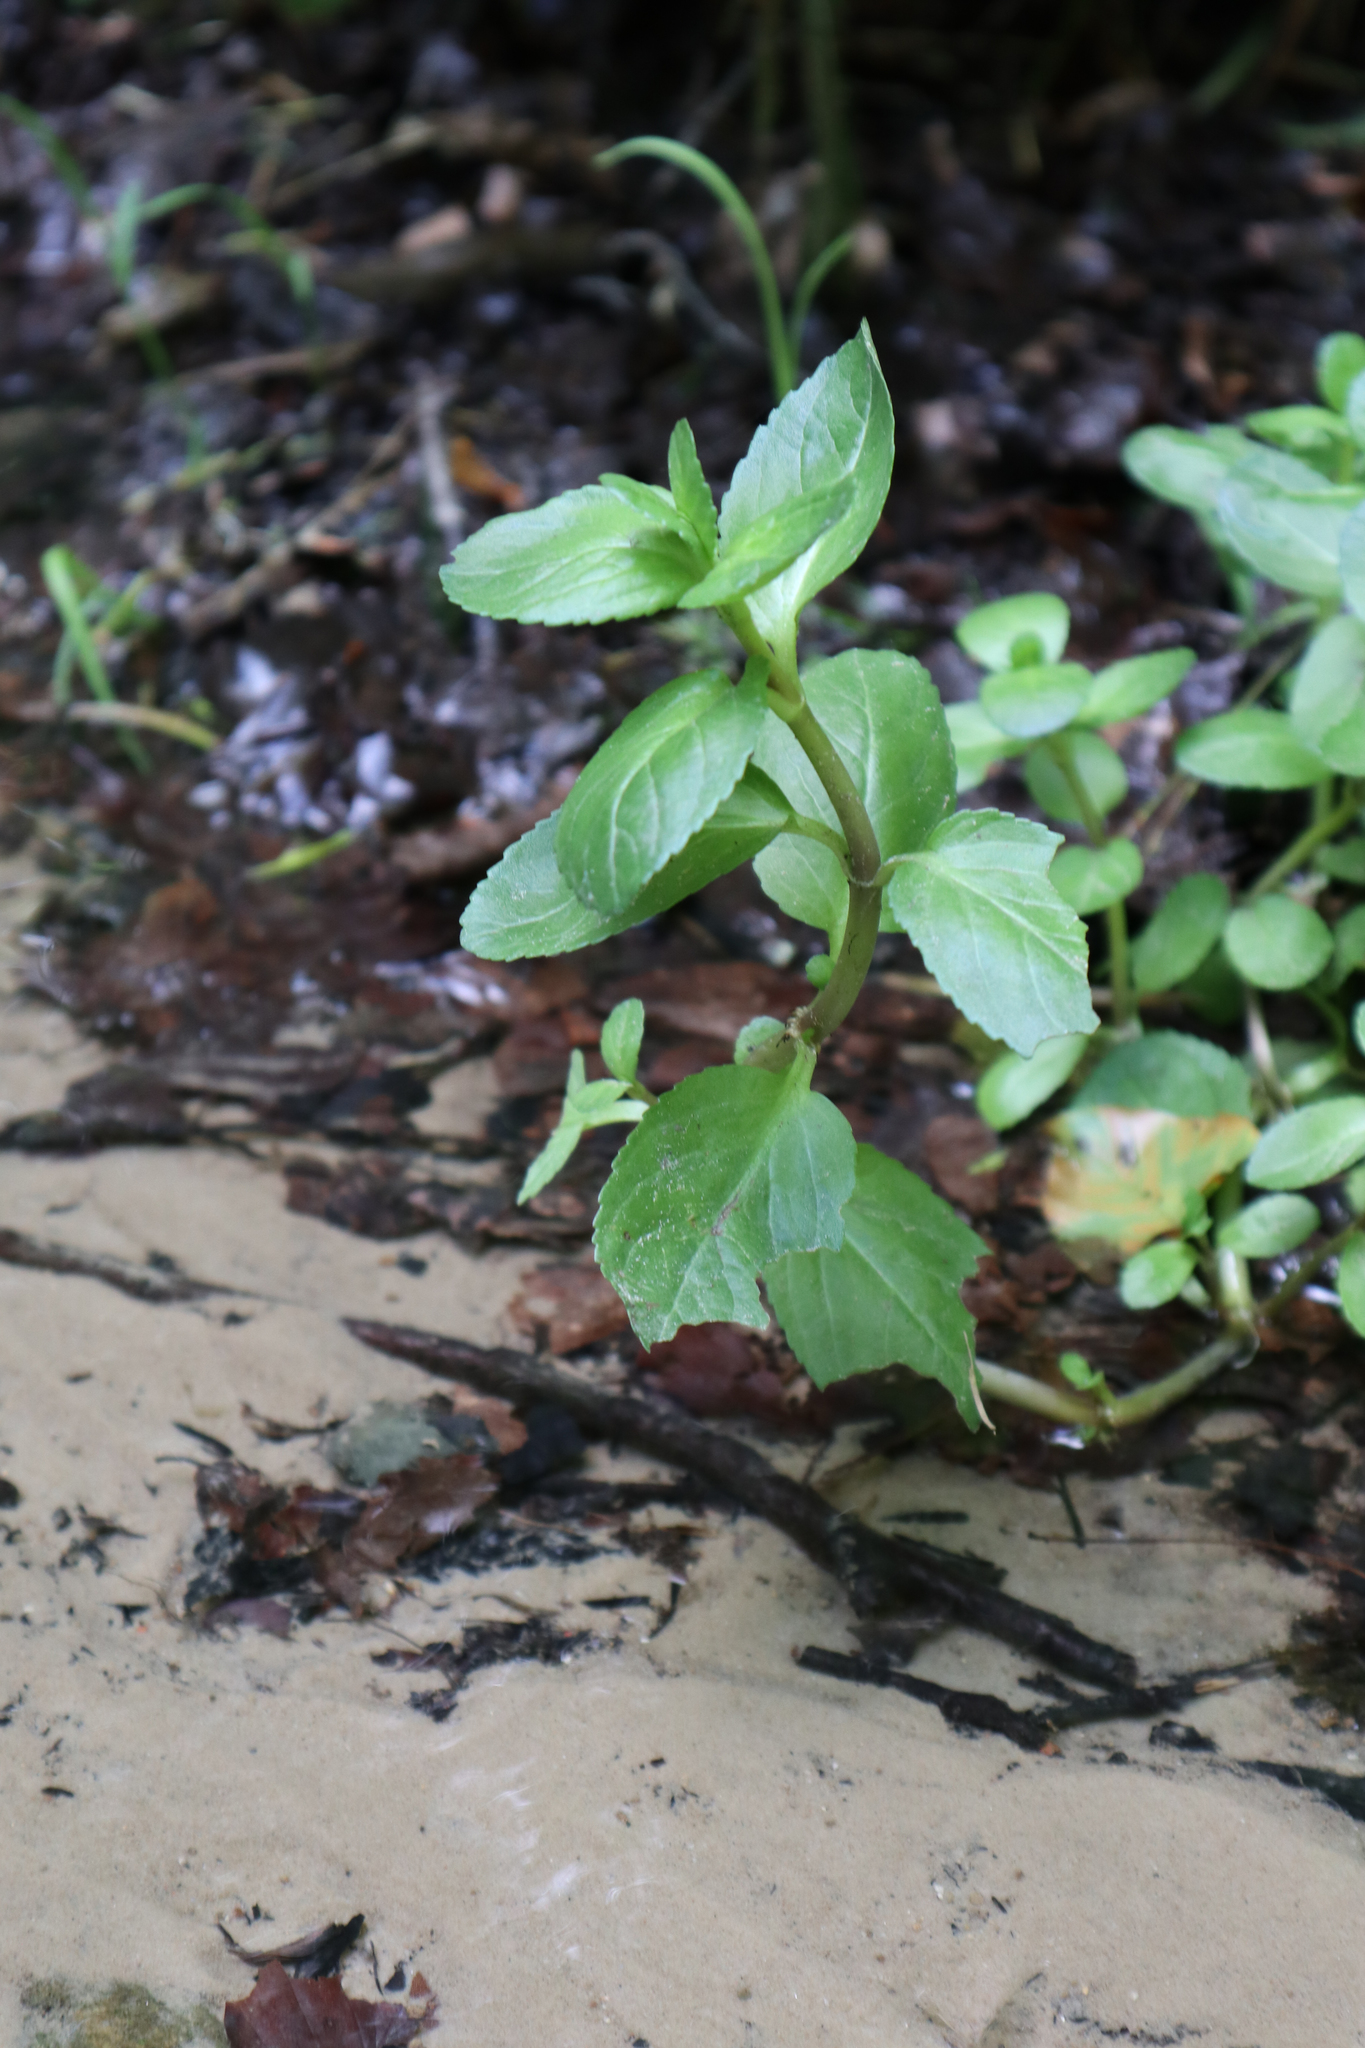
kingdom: Plantae
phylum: Tracheophyta
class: Magnoliopsida
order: Lamiales
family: Plantaginaceae
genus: Veronica
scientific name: Veronica beccabunga
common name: Brooklime
